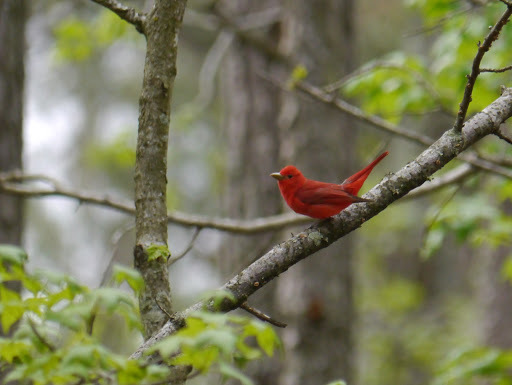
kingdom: Animalia
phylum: Chordata
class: Aves
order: Passeriformes
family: Cardinalidae
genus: Piranga
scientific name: Piranga rubra
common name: Summer tanager
